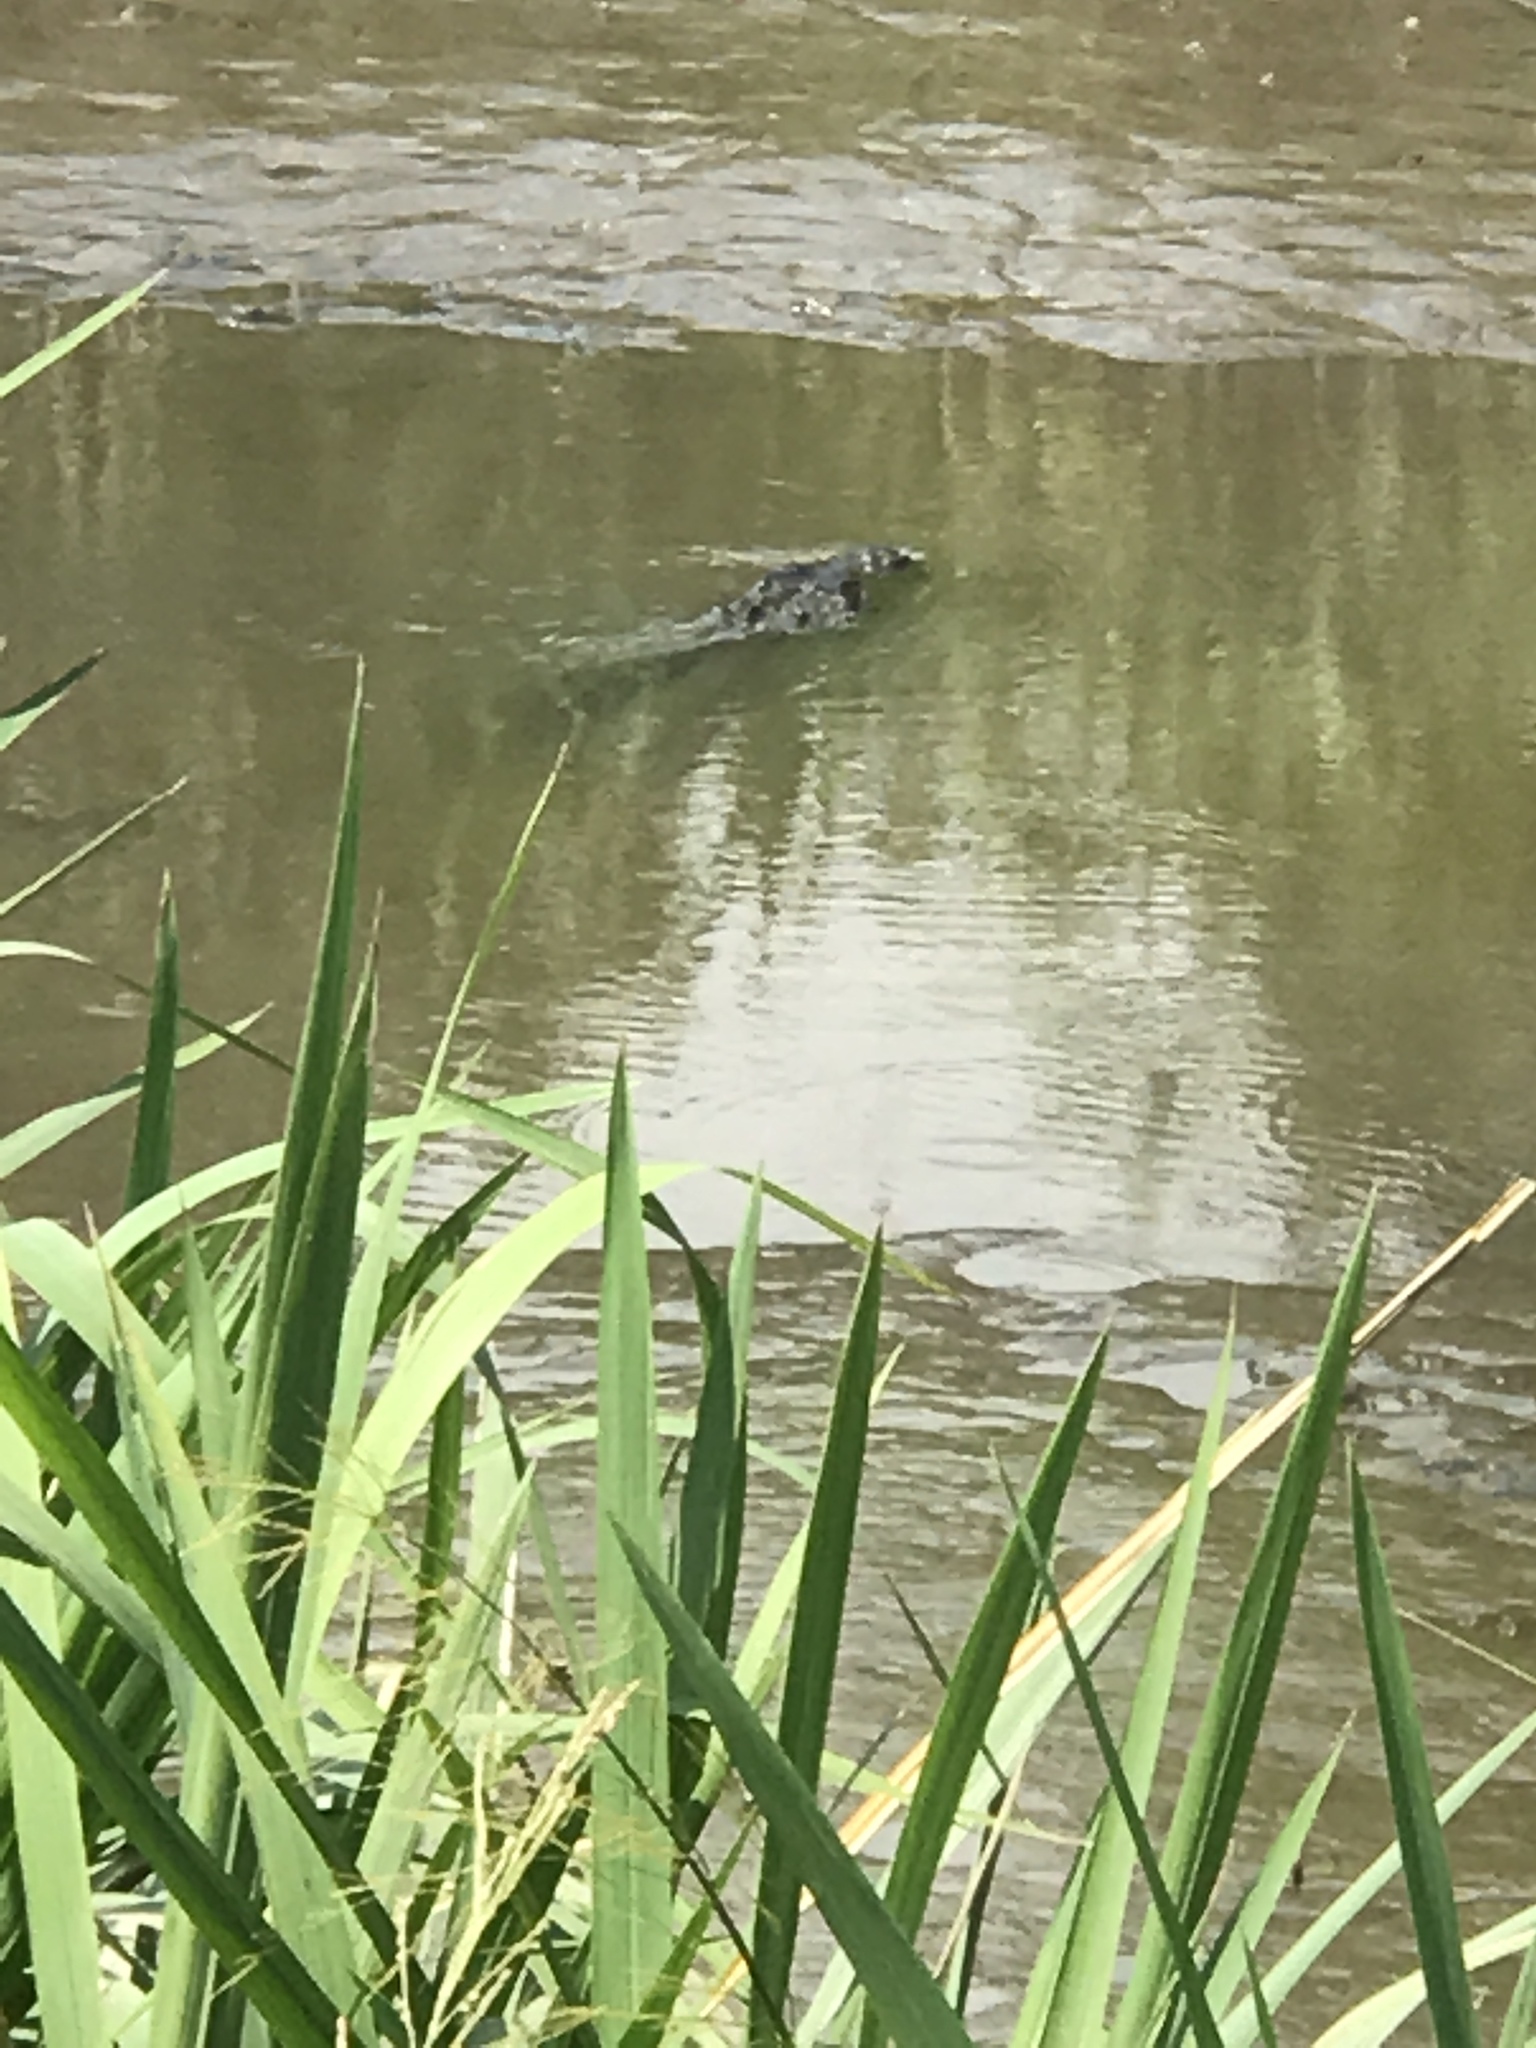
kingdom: Animalia
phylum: Chordata
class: Crocodylia
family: Alligatoridae
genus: Alligator
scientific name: Alligator mississippiensis
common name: American alligator
